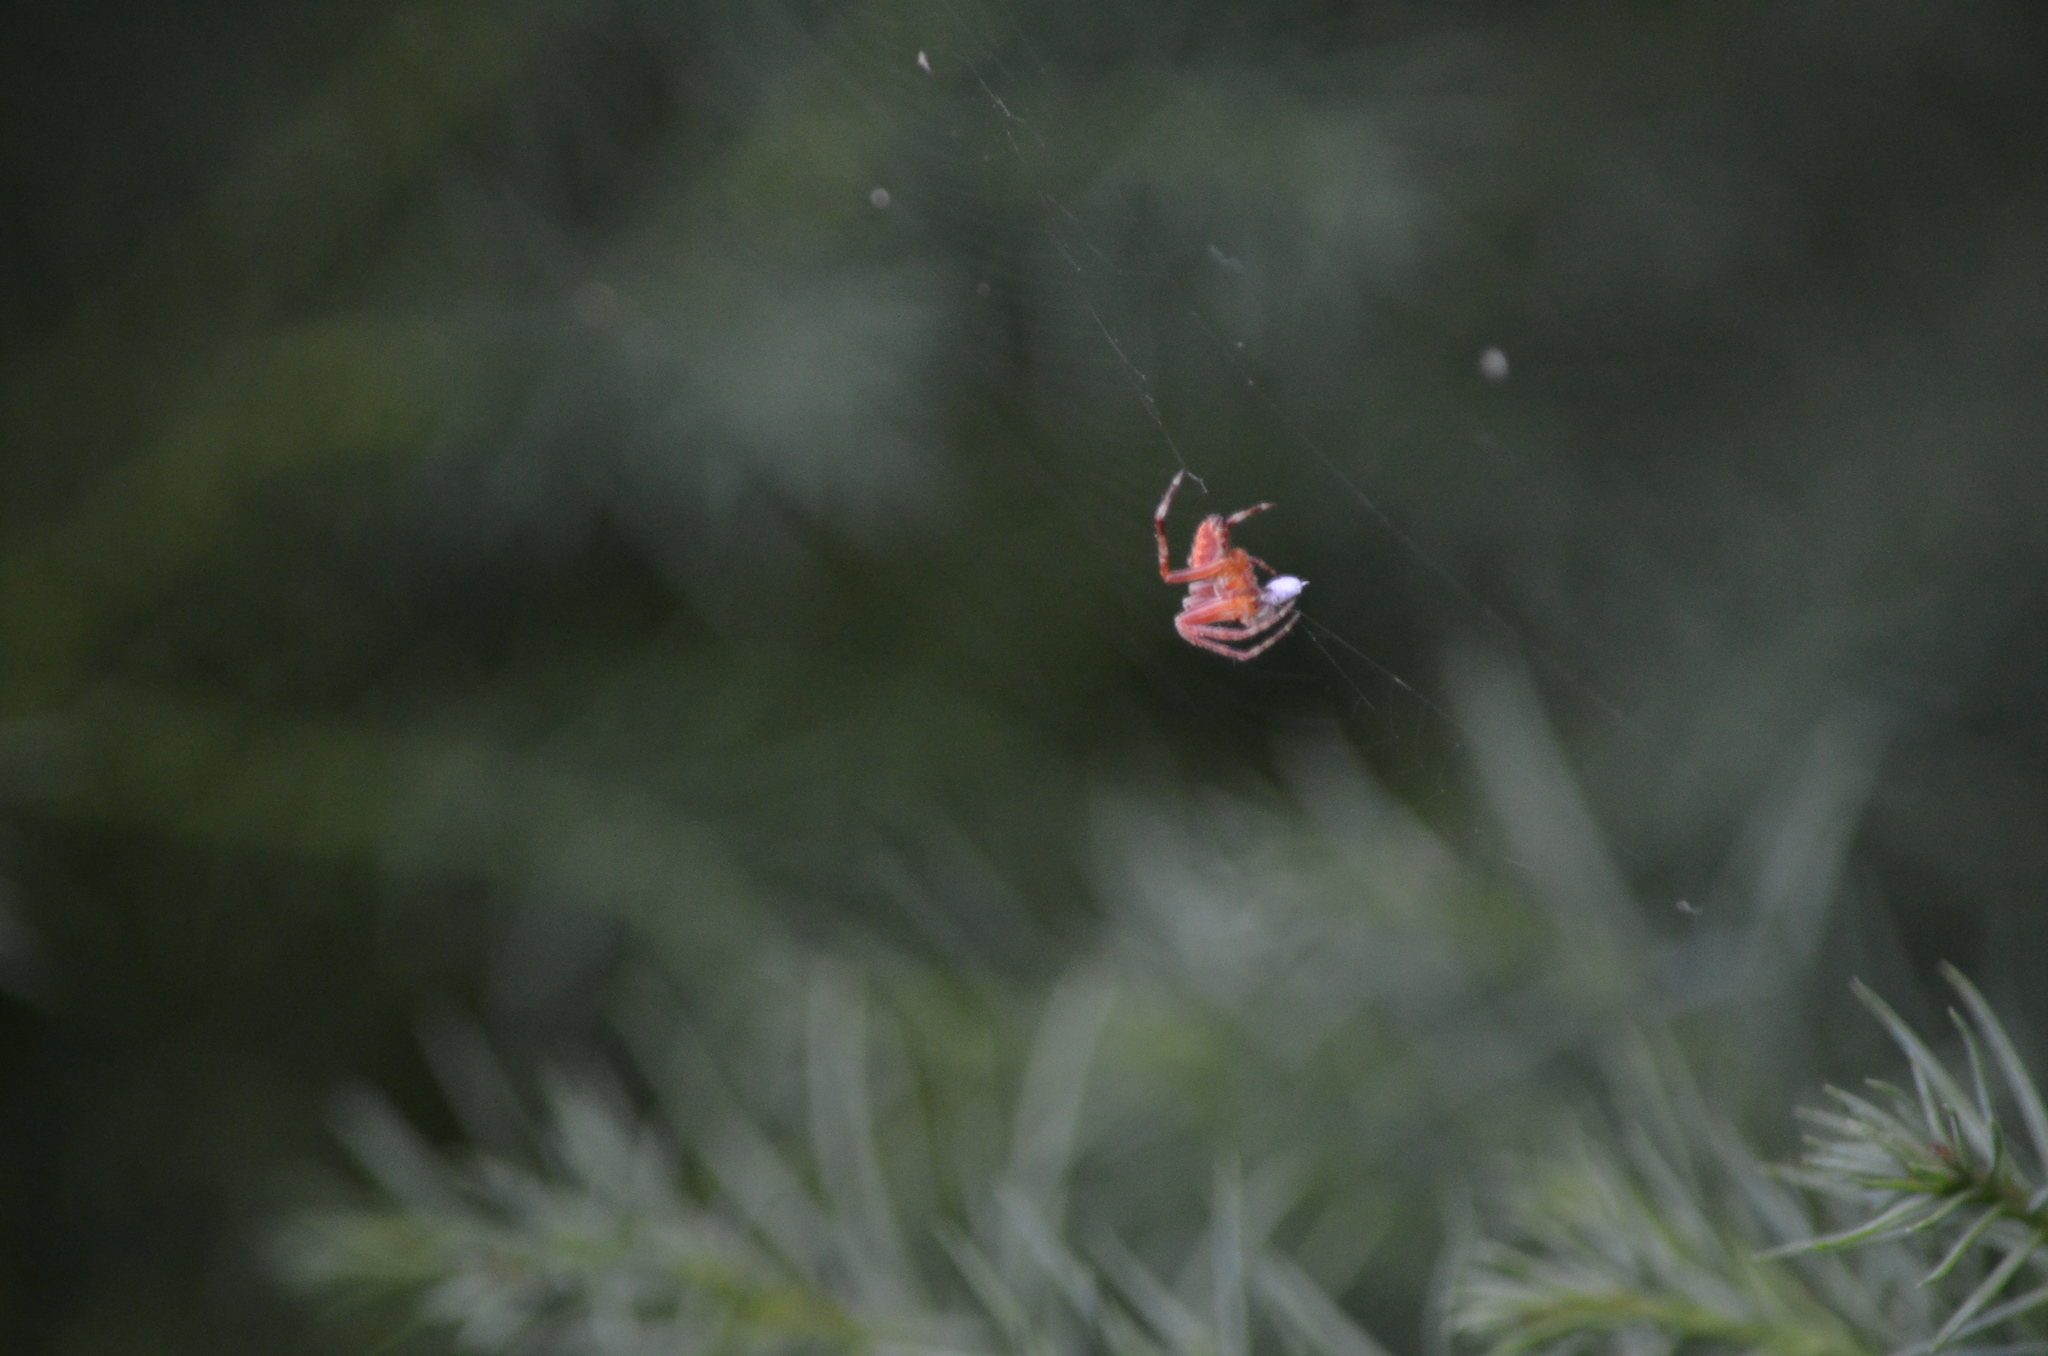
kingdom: Animalia
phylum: Arthropoda
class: Arachnida
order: Araneae
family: Araneidae
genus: Araneus
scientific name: Araneus diadematus
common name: Cross orbweaver
